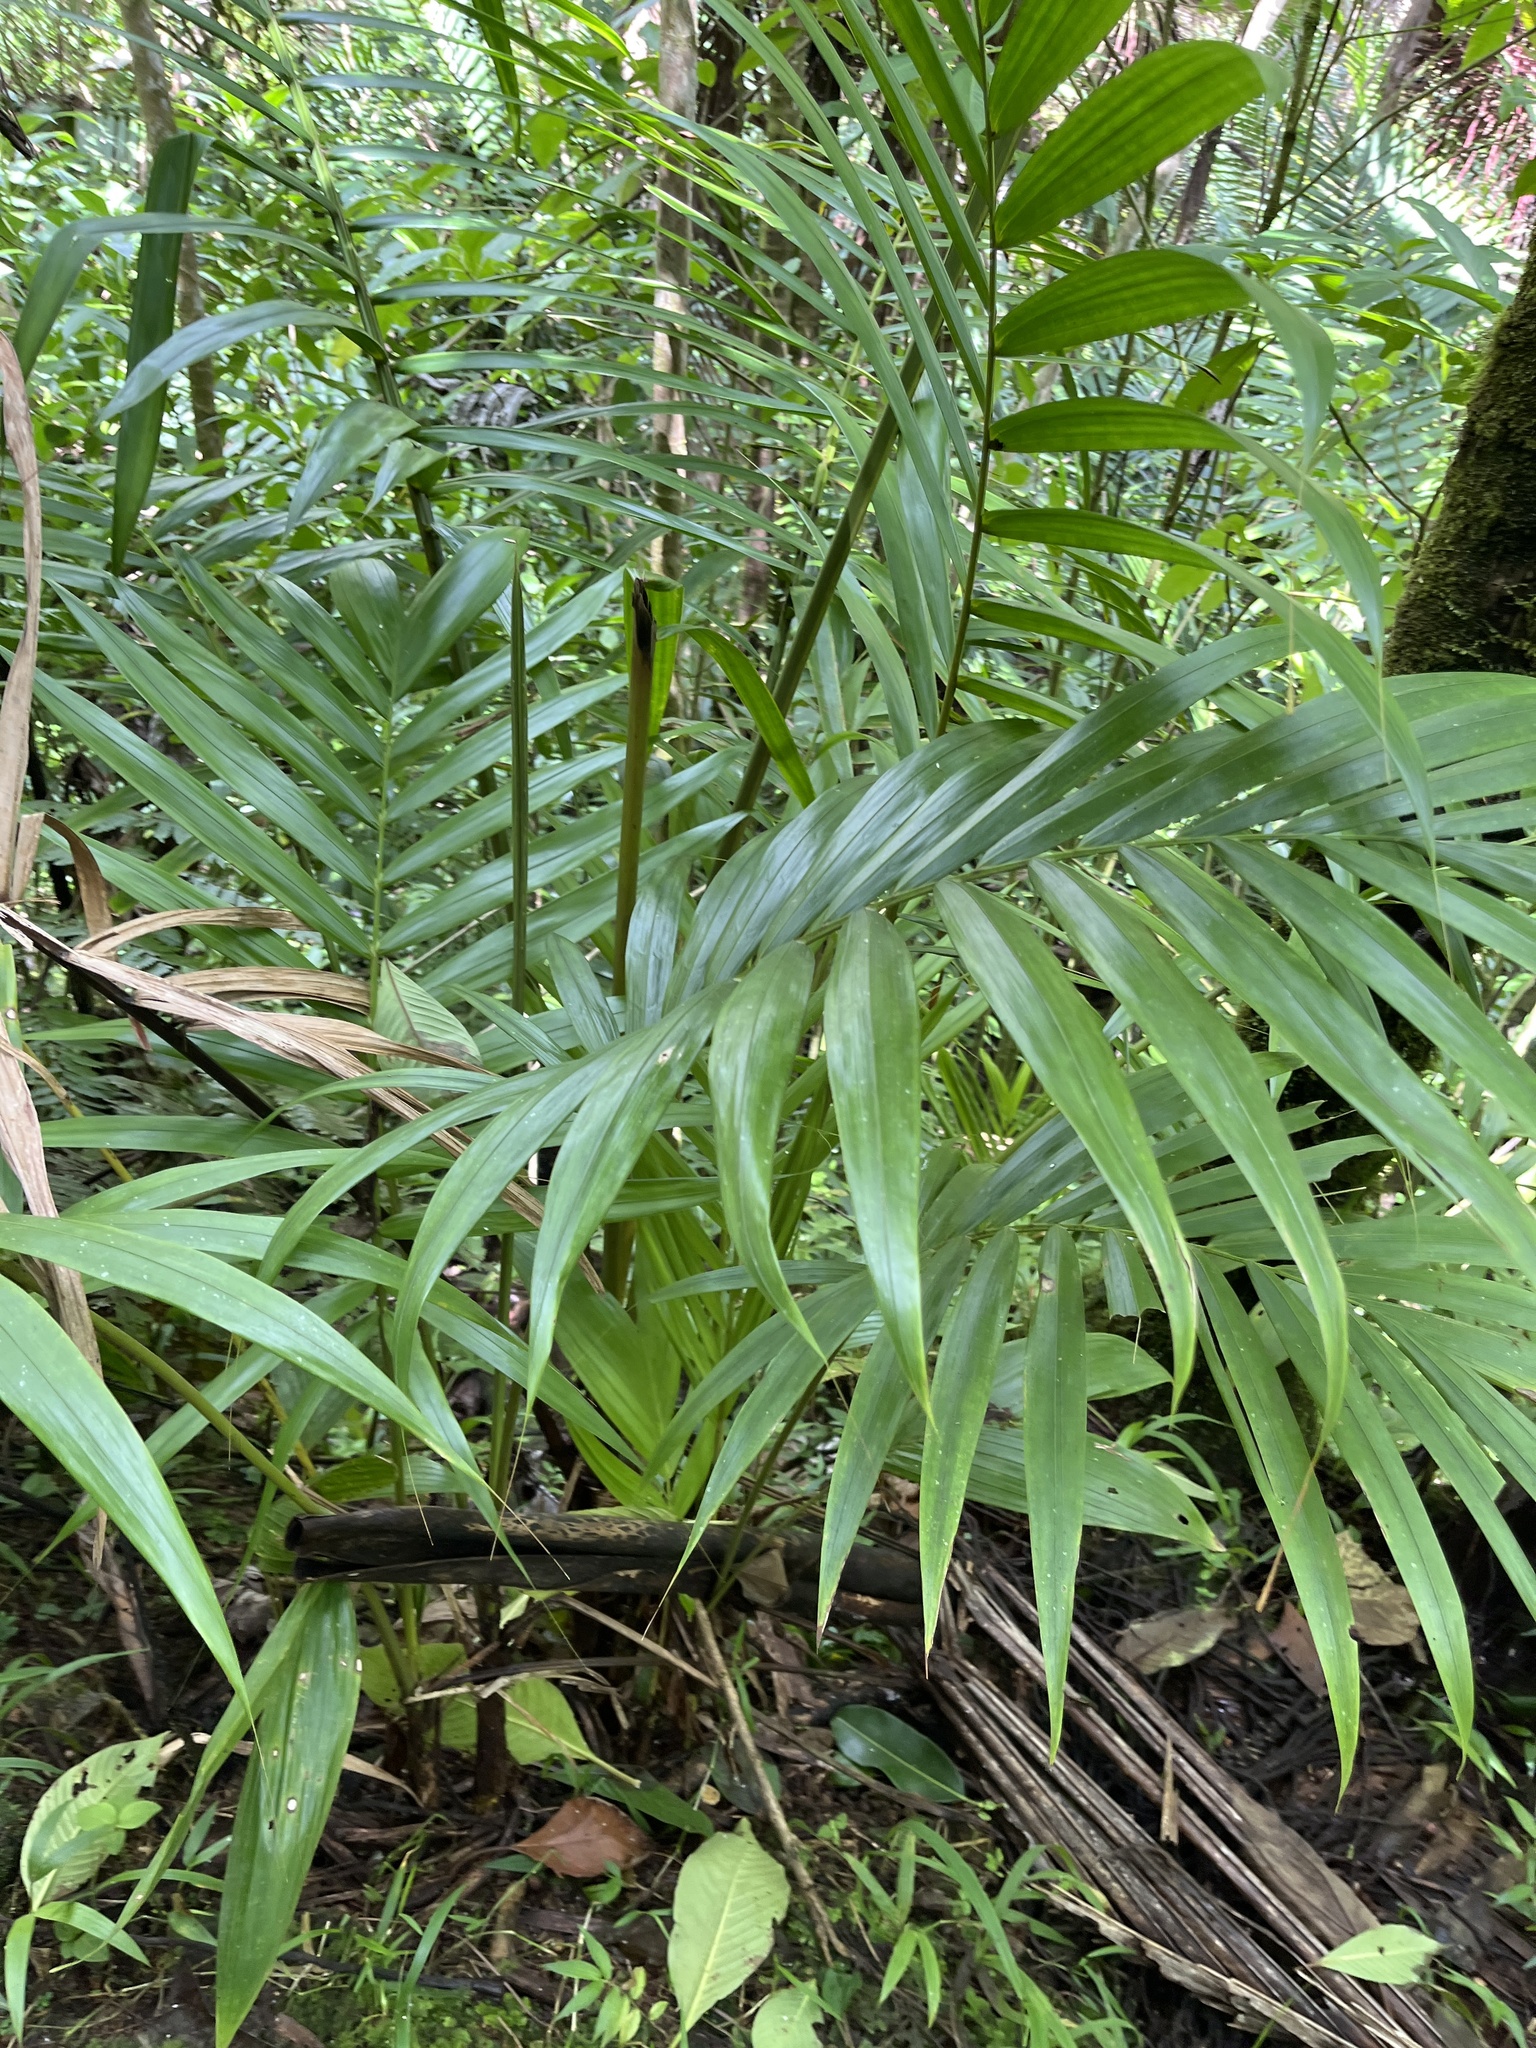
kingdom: Plantae
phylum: Tracheophyta
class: Liliopsida
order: Arecales
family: Arecaceae
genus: Prestoea
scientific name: Prestoea acuminata
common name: Sierran palm
